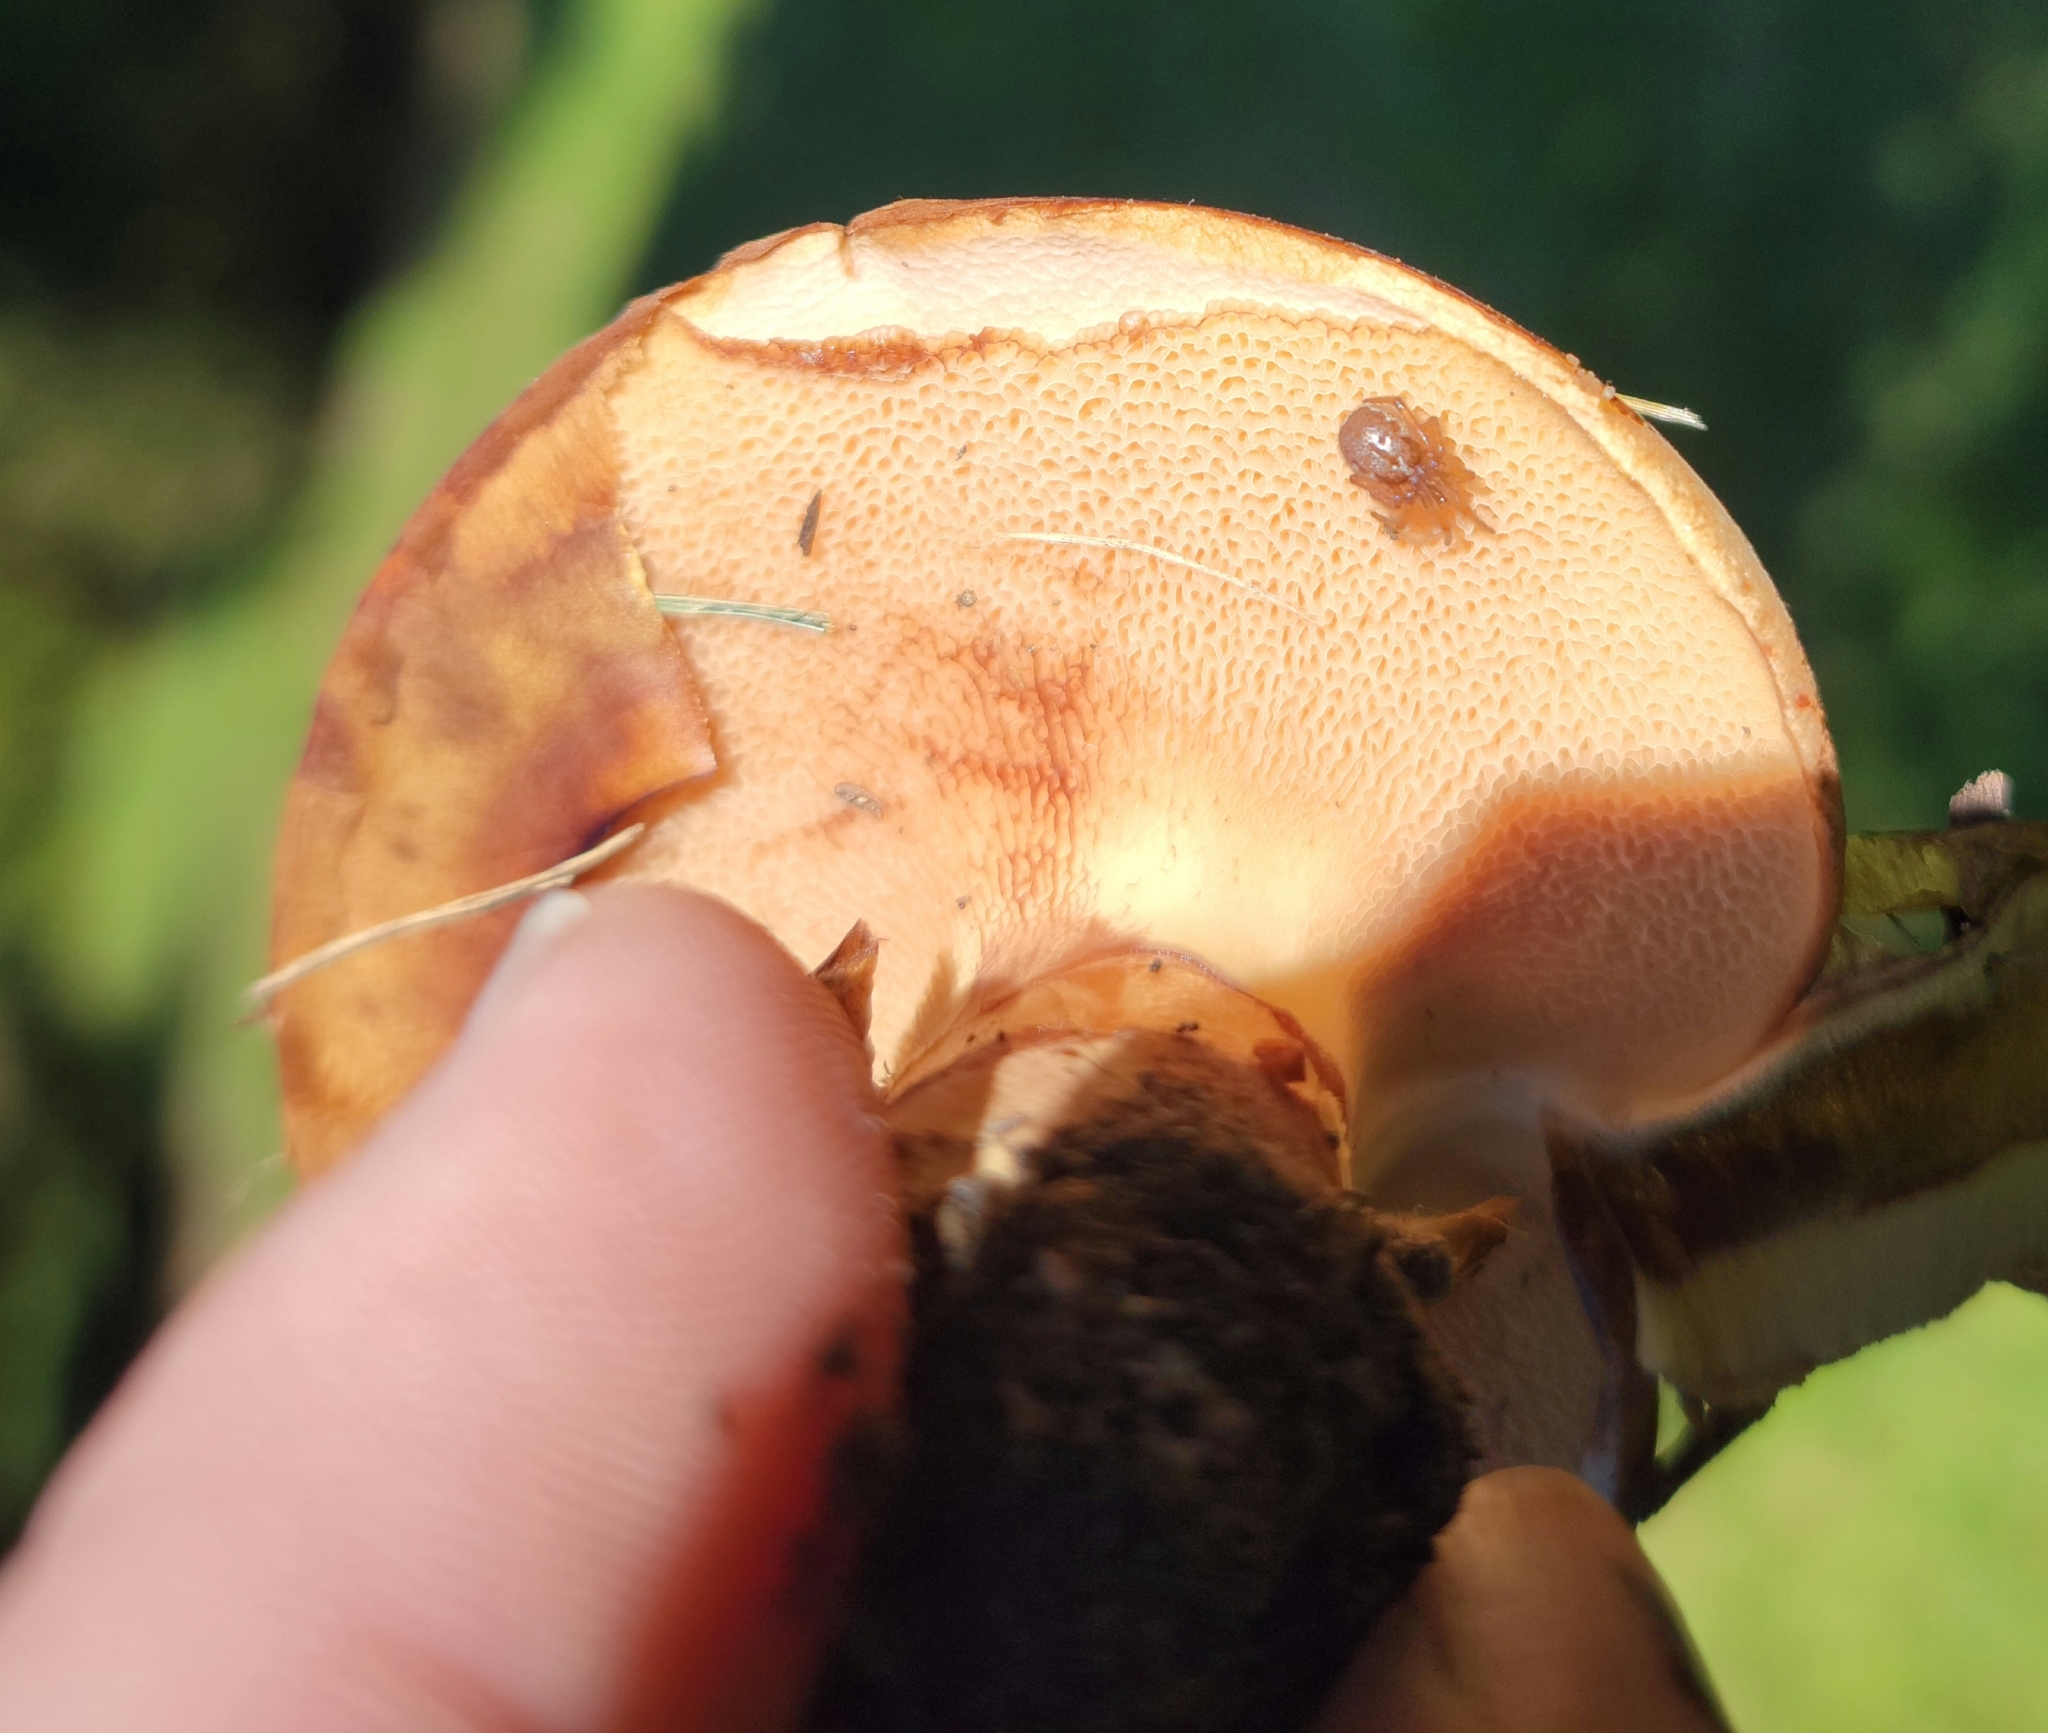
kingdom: Fungi
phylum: Basidiomycota
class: Agaricomycetes
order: Boletales
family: Suillaceae
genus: Suillus
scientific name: Suillus luteus
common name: Slippery jack
